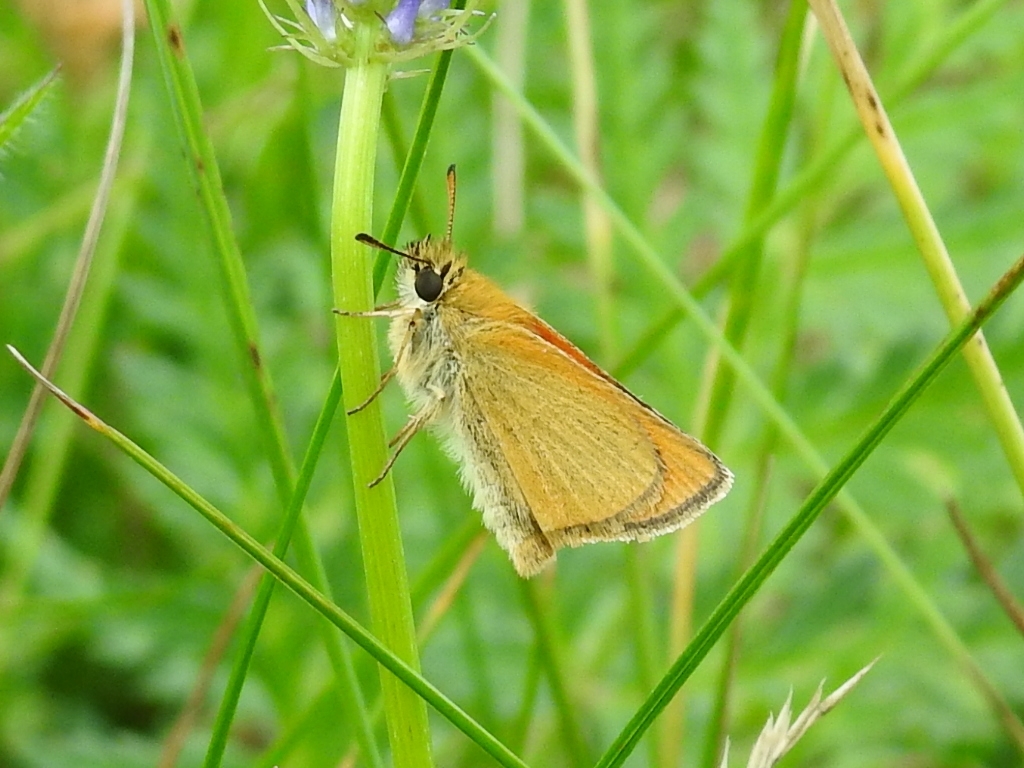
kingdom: Animalia
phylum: Arthropoda
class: Insecta
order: Lepidoptera
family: Hesperiidae
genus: Thymelicus
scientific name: Thymelicus lineola
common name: Essex skipper
